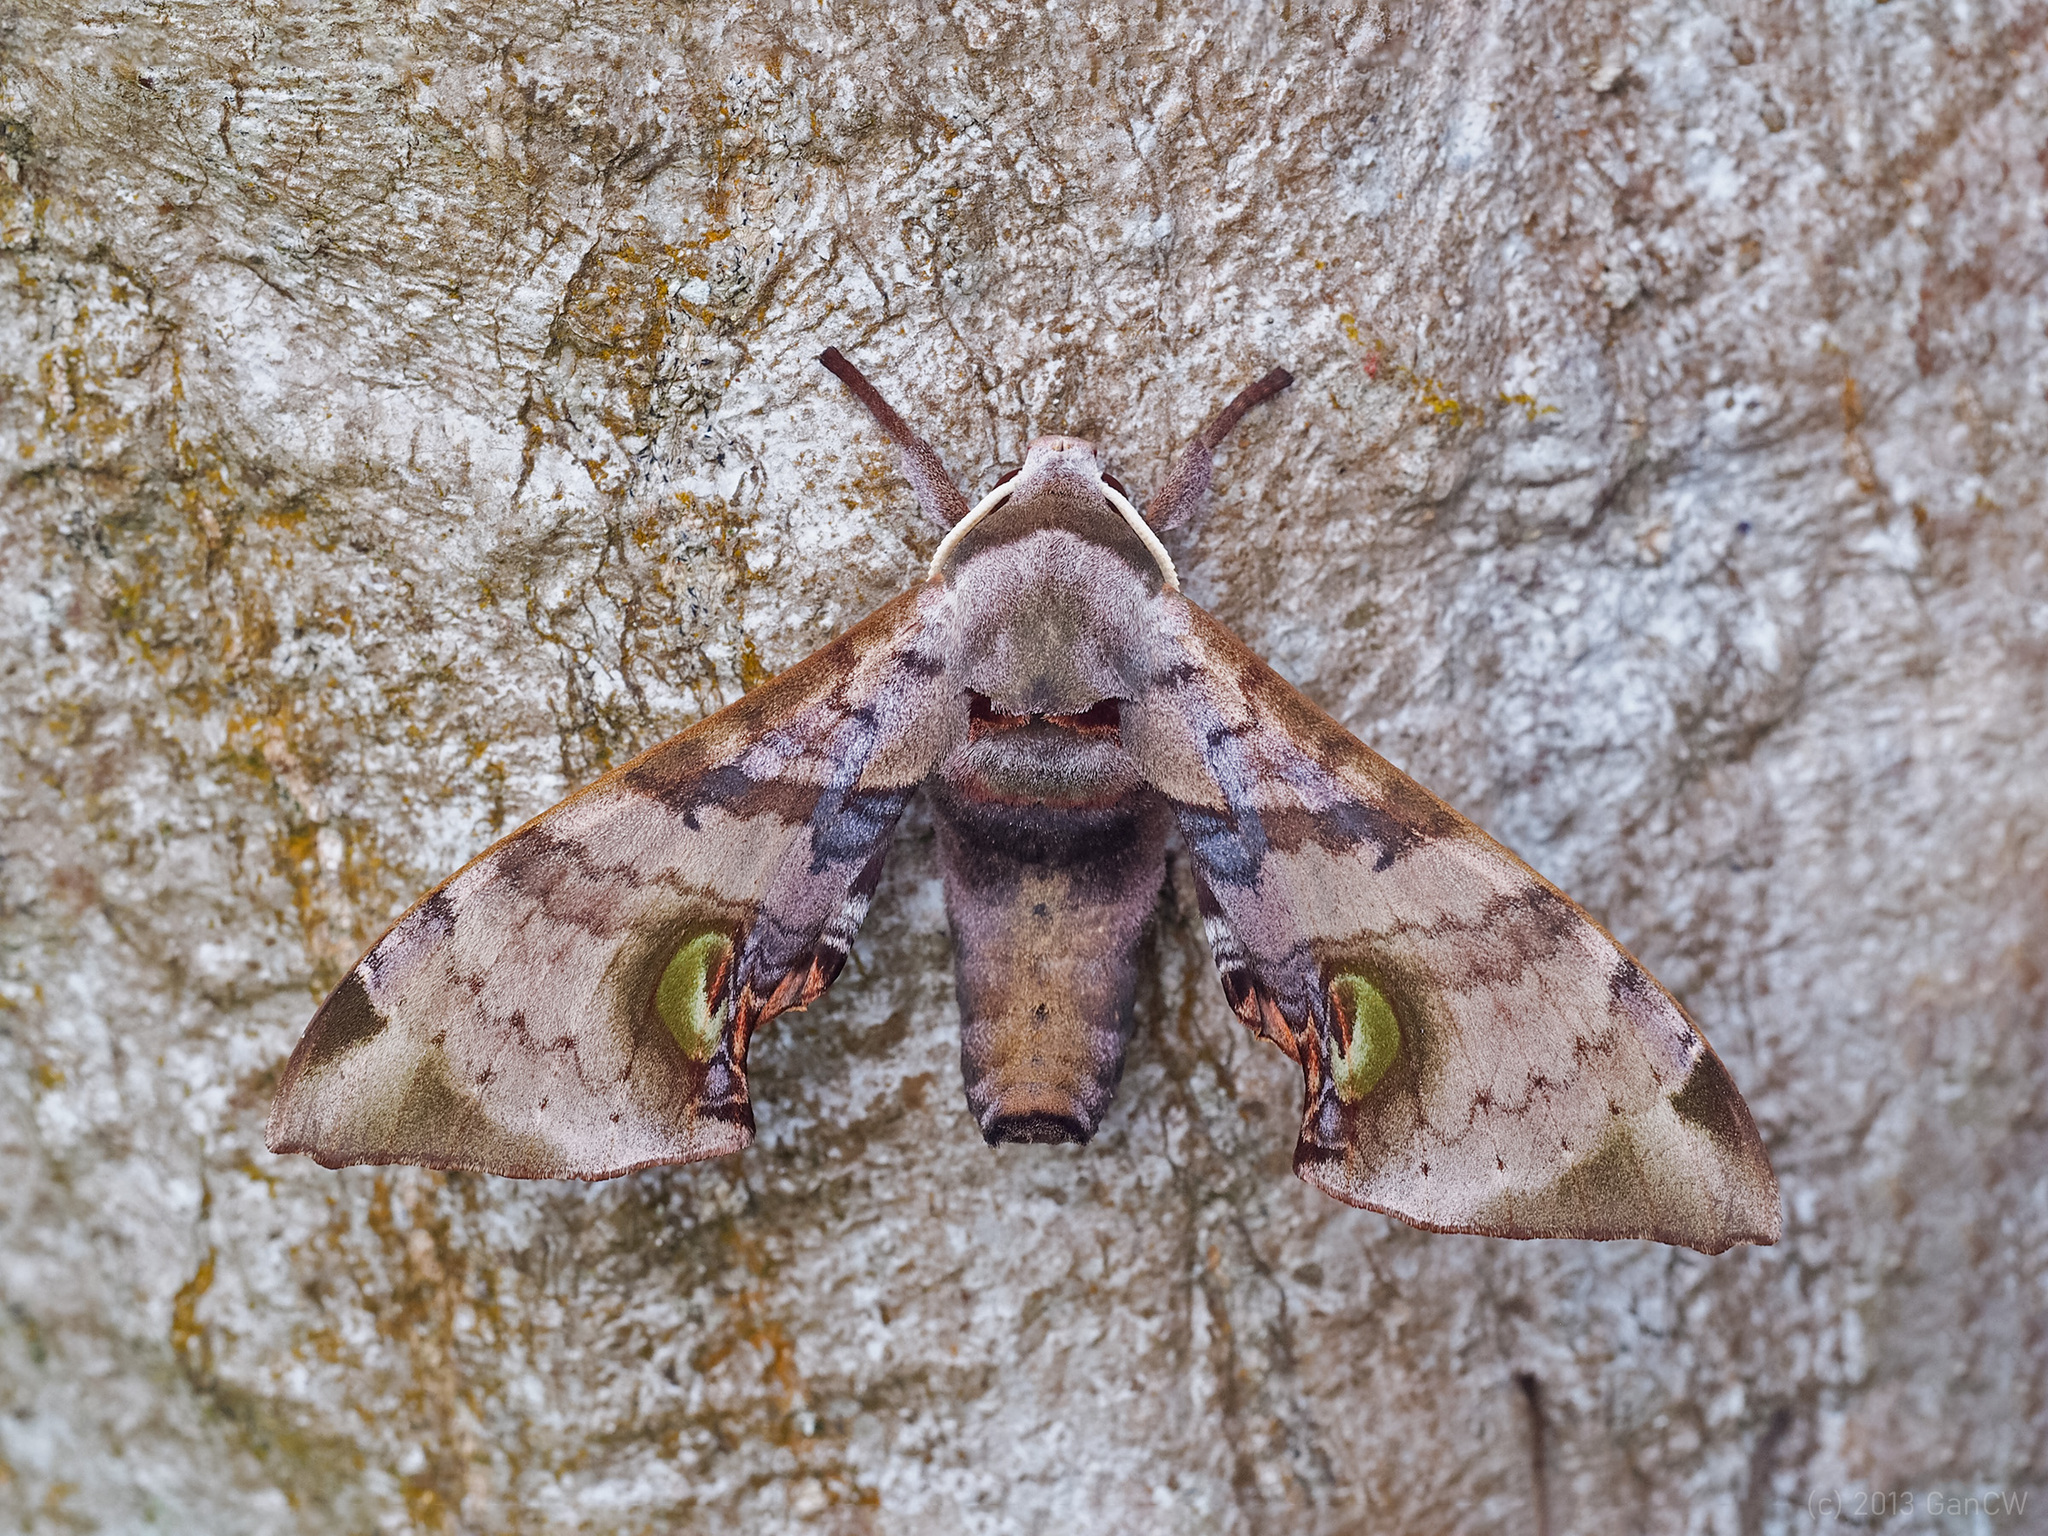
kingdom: Animalia
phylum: Arthropoda
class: Insecta
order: Lepidoptera
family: Sphingidae
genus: Daphnusa
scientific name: Daphnusa ocellaris
